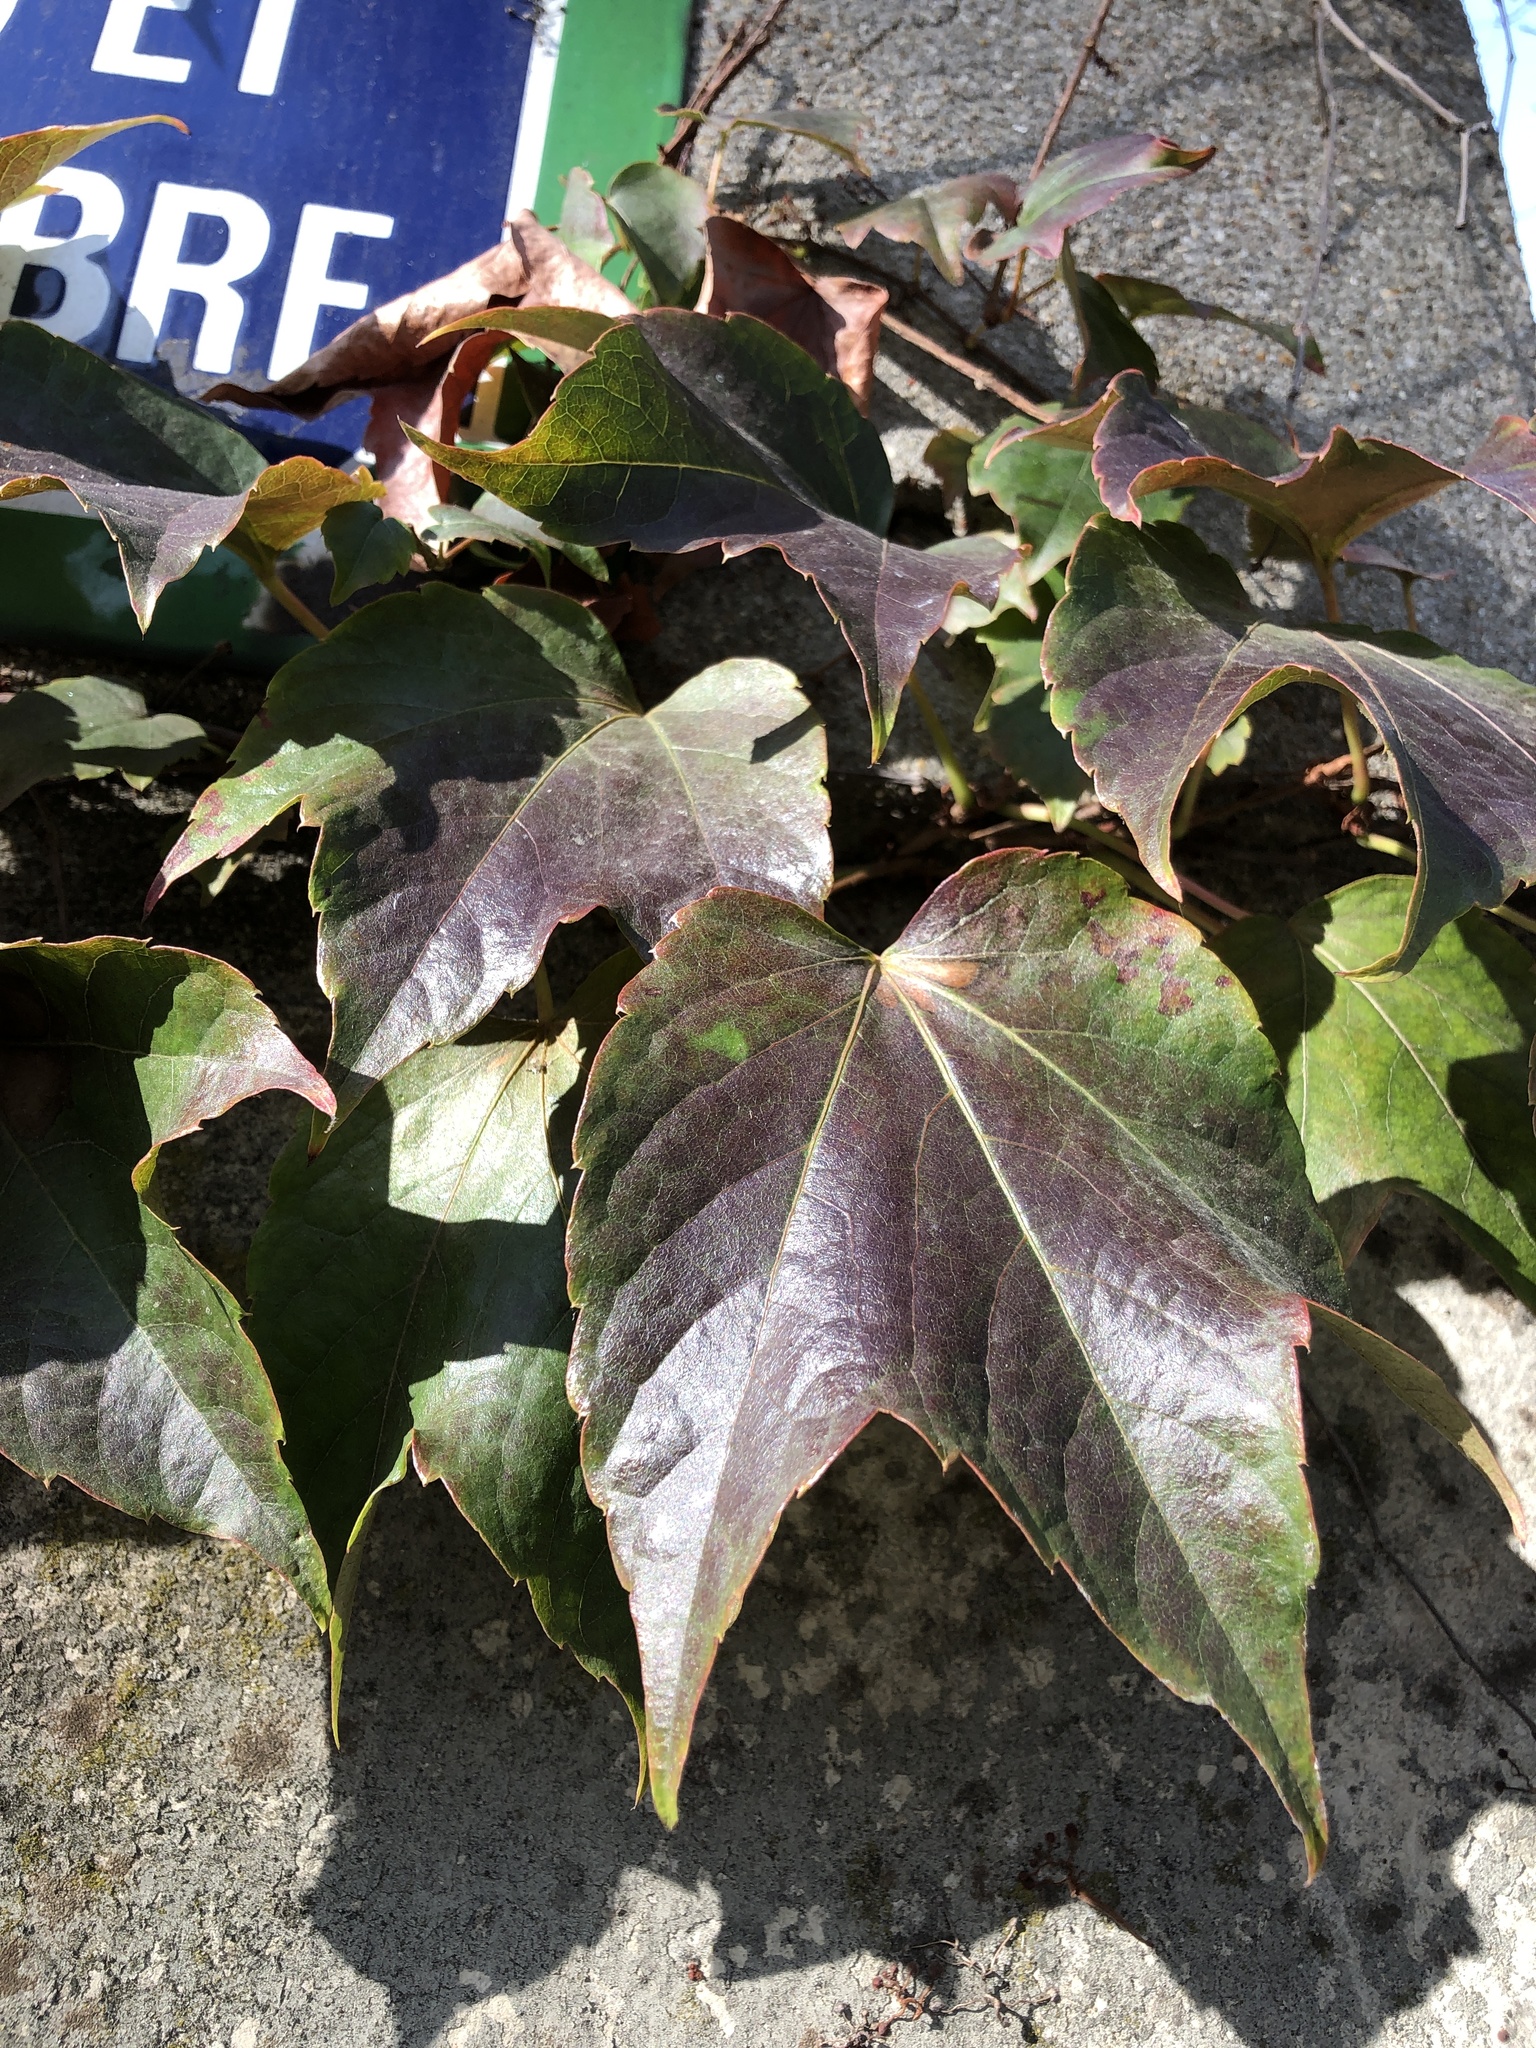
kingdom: Plantae
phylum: Tracheophyta
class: Magnoliopsida
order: Vitales
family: Vitaceae
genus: Parthenocissus
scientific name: Parthenocissus tricuspidata
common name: Boston ivy
